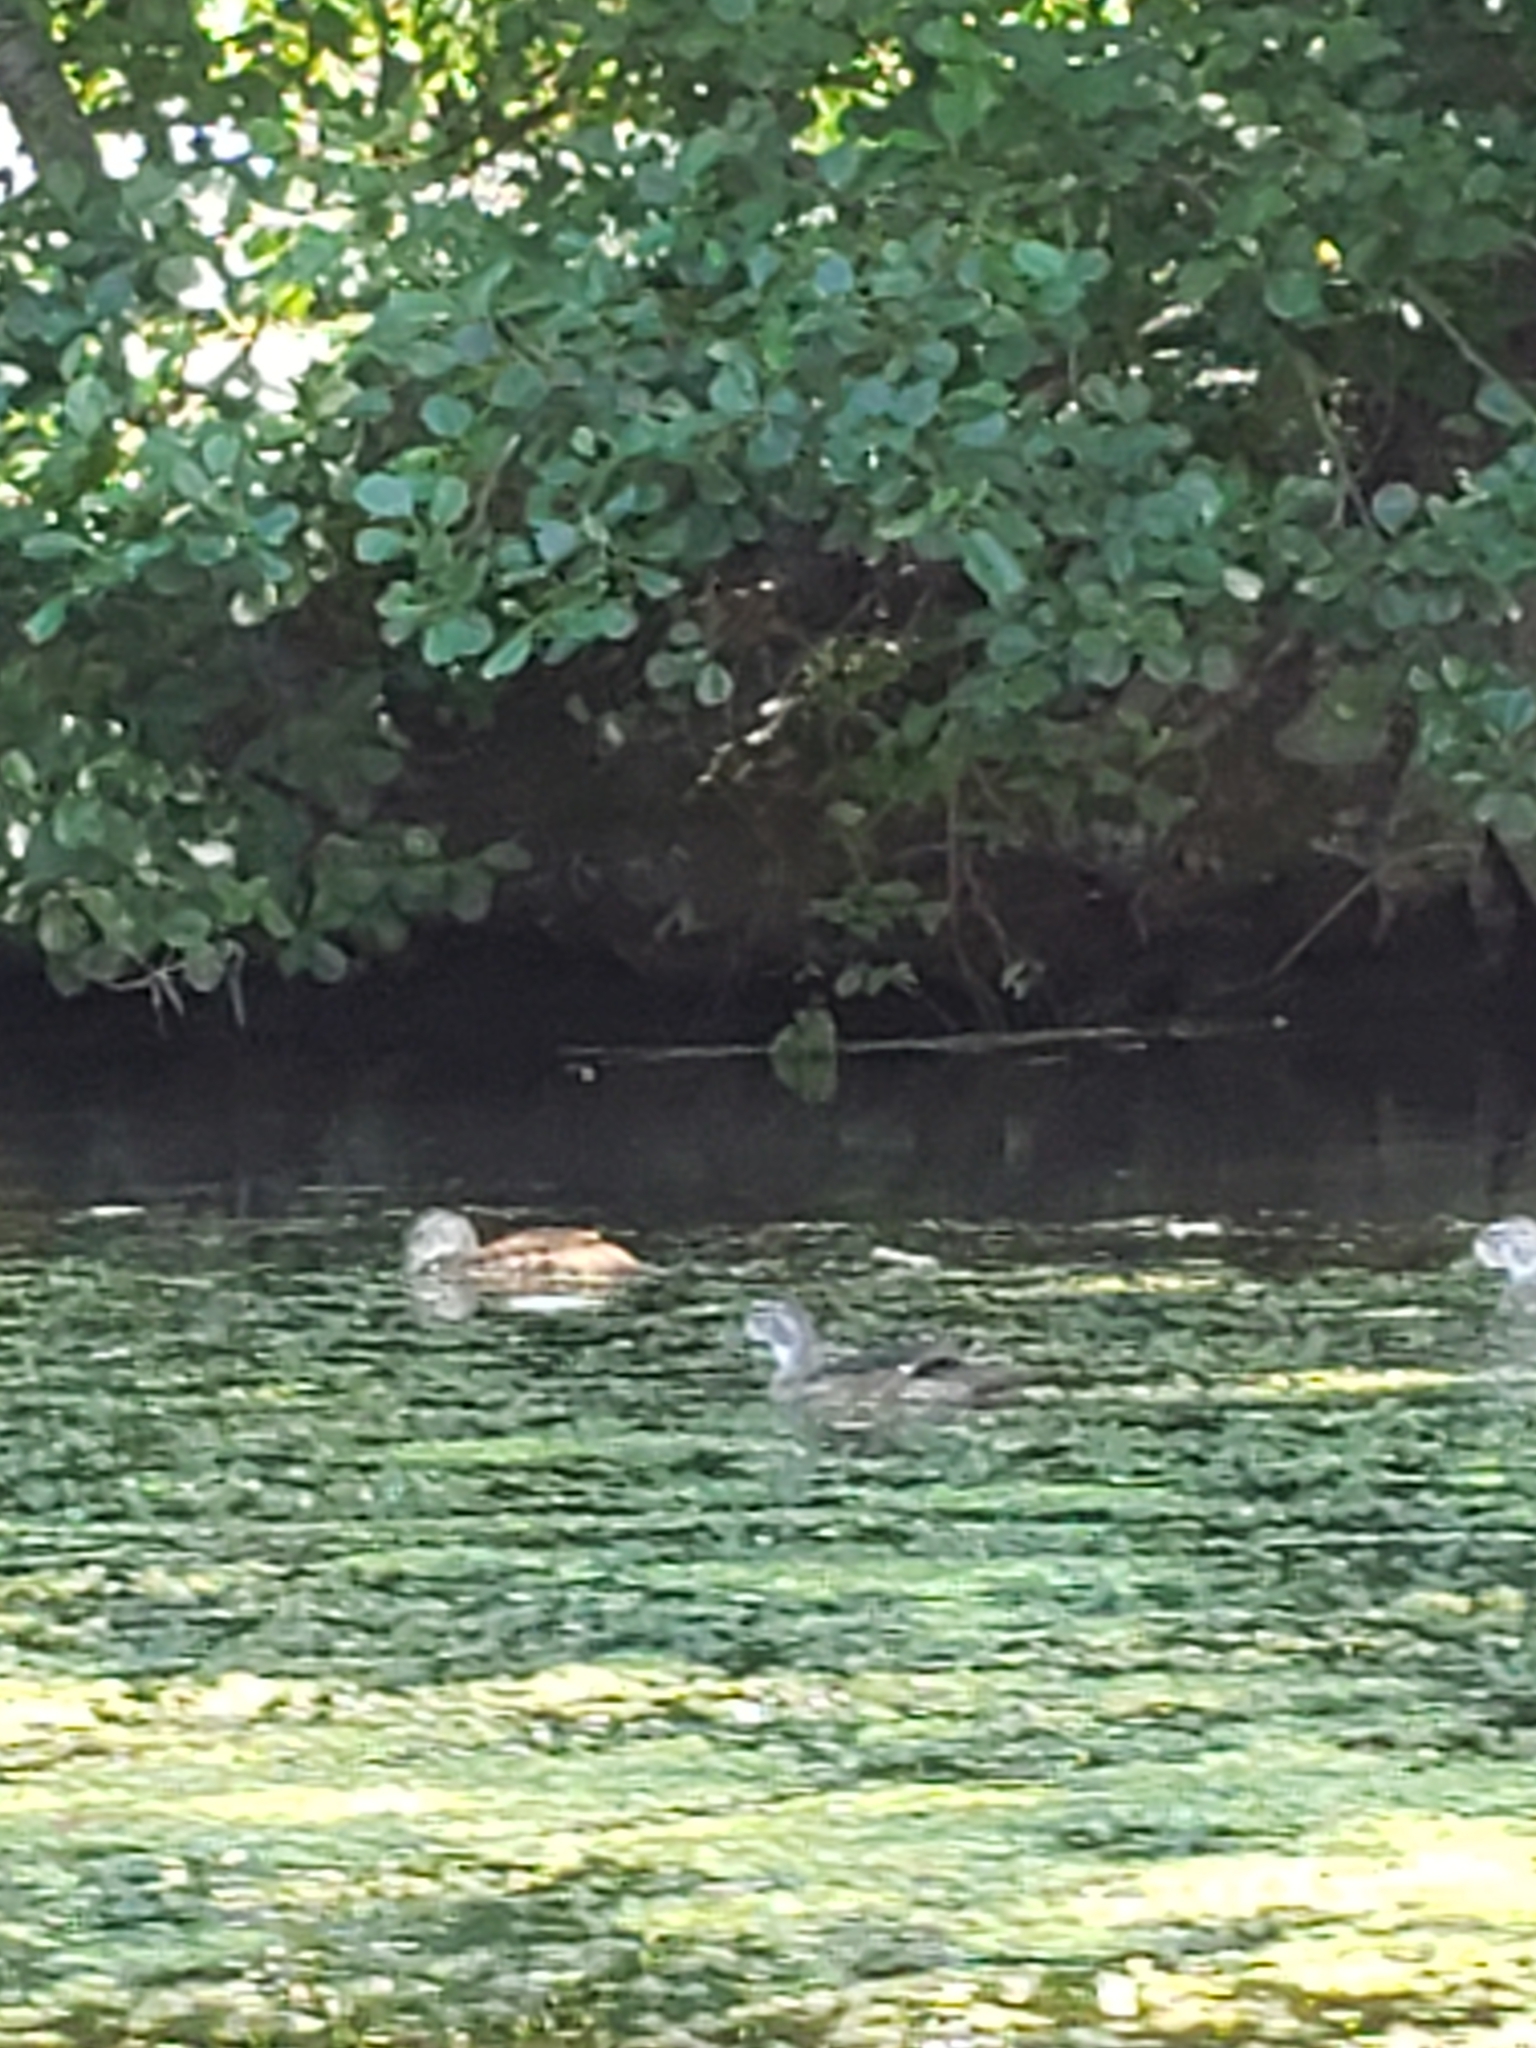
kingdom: Animalia
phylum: Chordata
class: Aves
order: Anseriformes
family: Anatidae
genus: Aix
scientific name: Aix sponsa
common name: Wood duck
